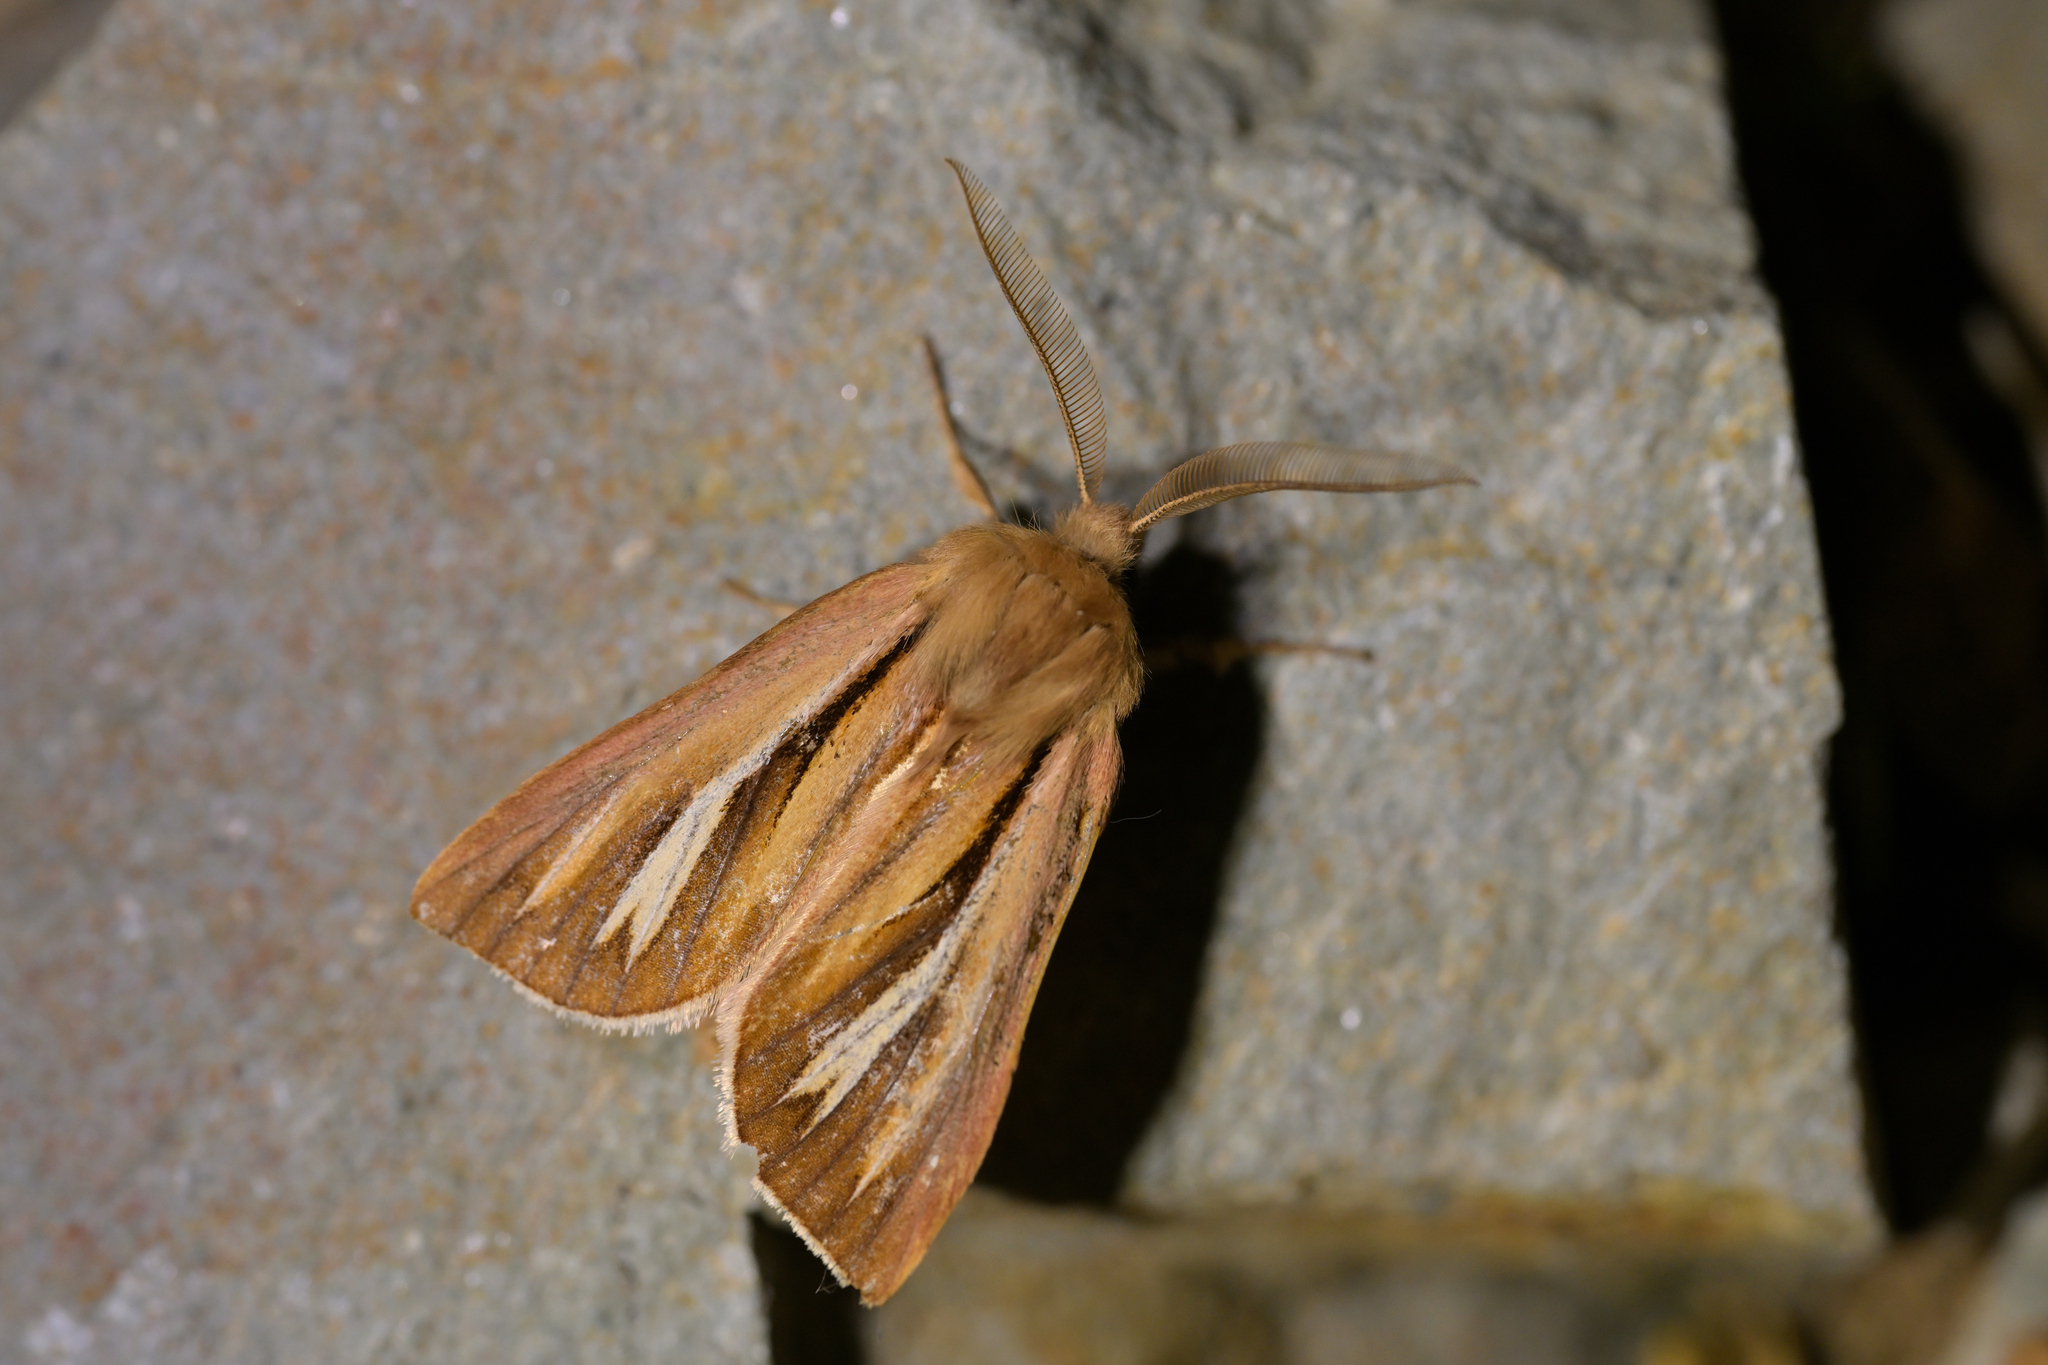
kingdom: Animalia
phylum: Arthropoda
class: Insecta
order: Lepidoptera
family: Noctuidae
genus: Ichneutica
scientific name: Ichneutica caraunias
